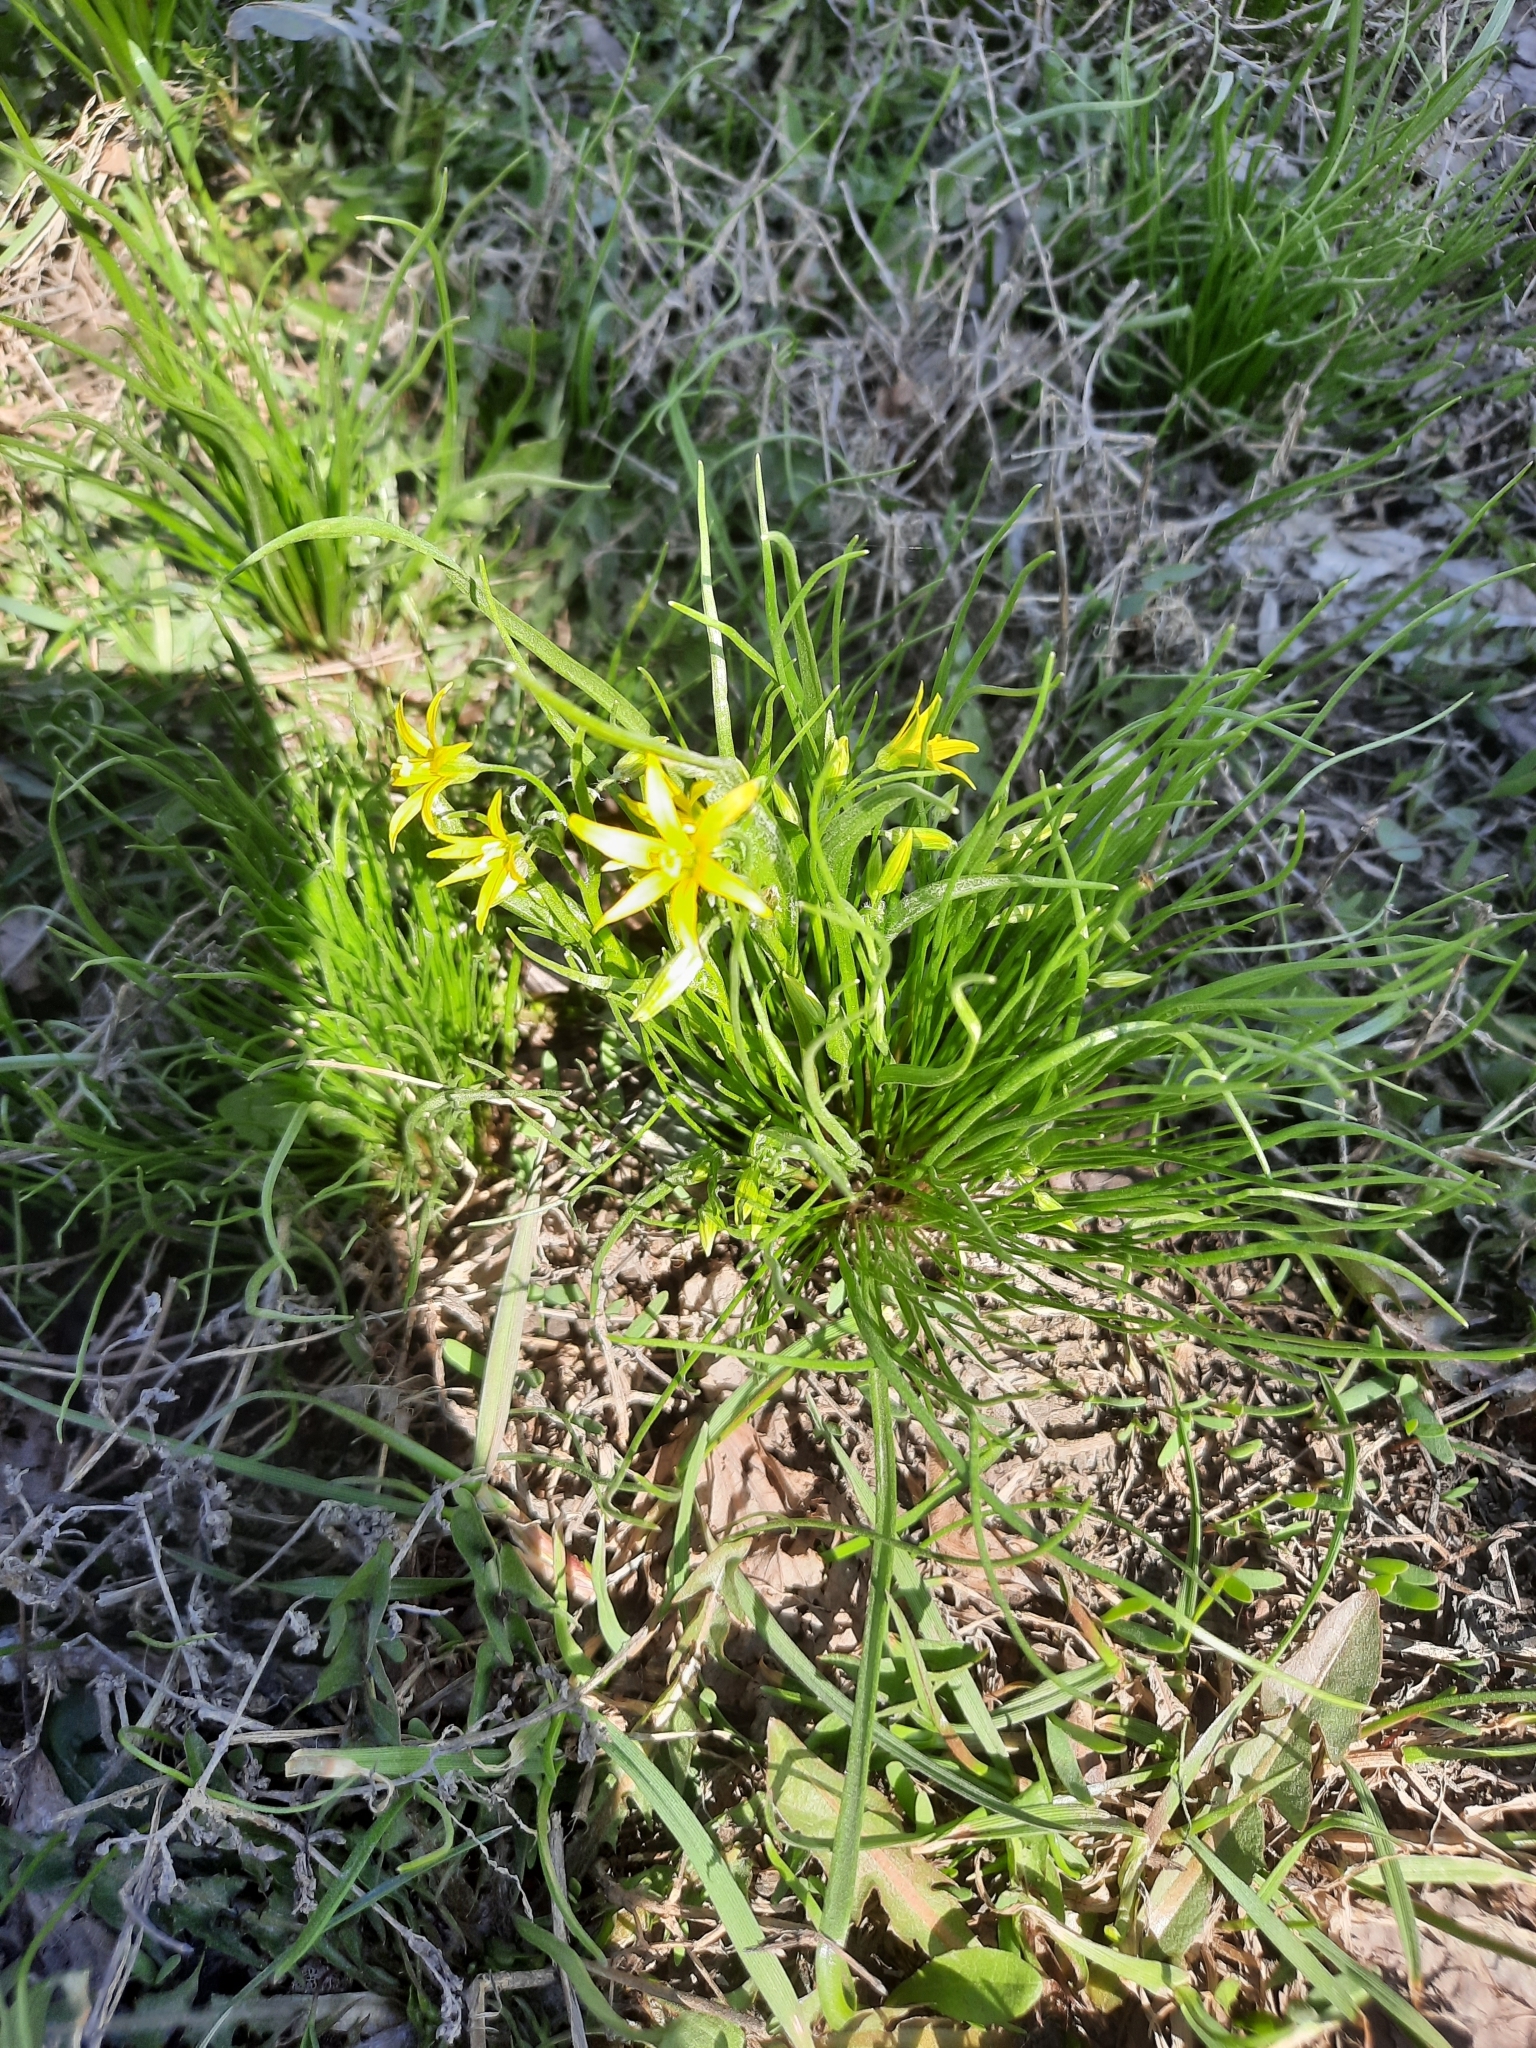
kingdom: Plantae
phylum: Tracheophyta
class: Liliopsida
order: Liliales
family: Liliaceae
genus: Gagea
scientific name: Gagea minima
